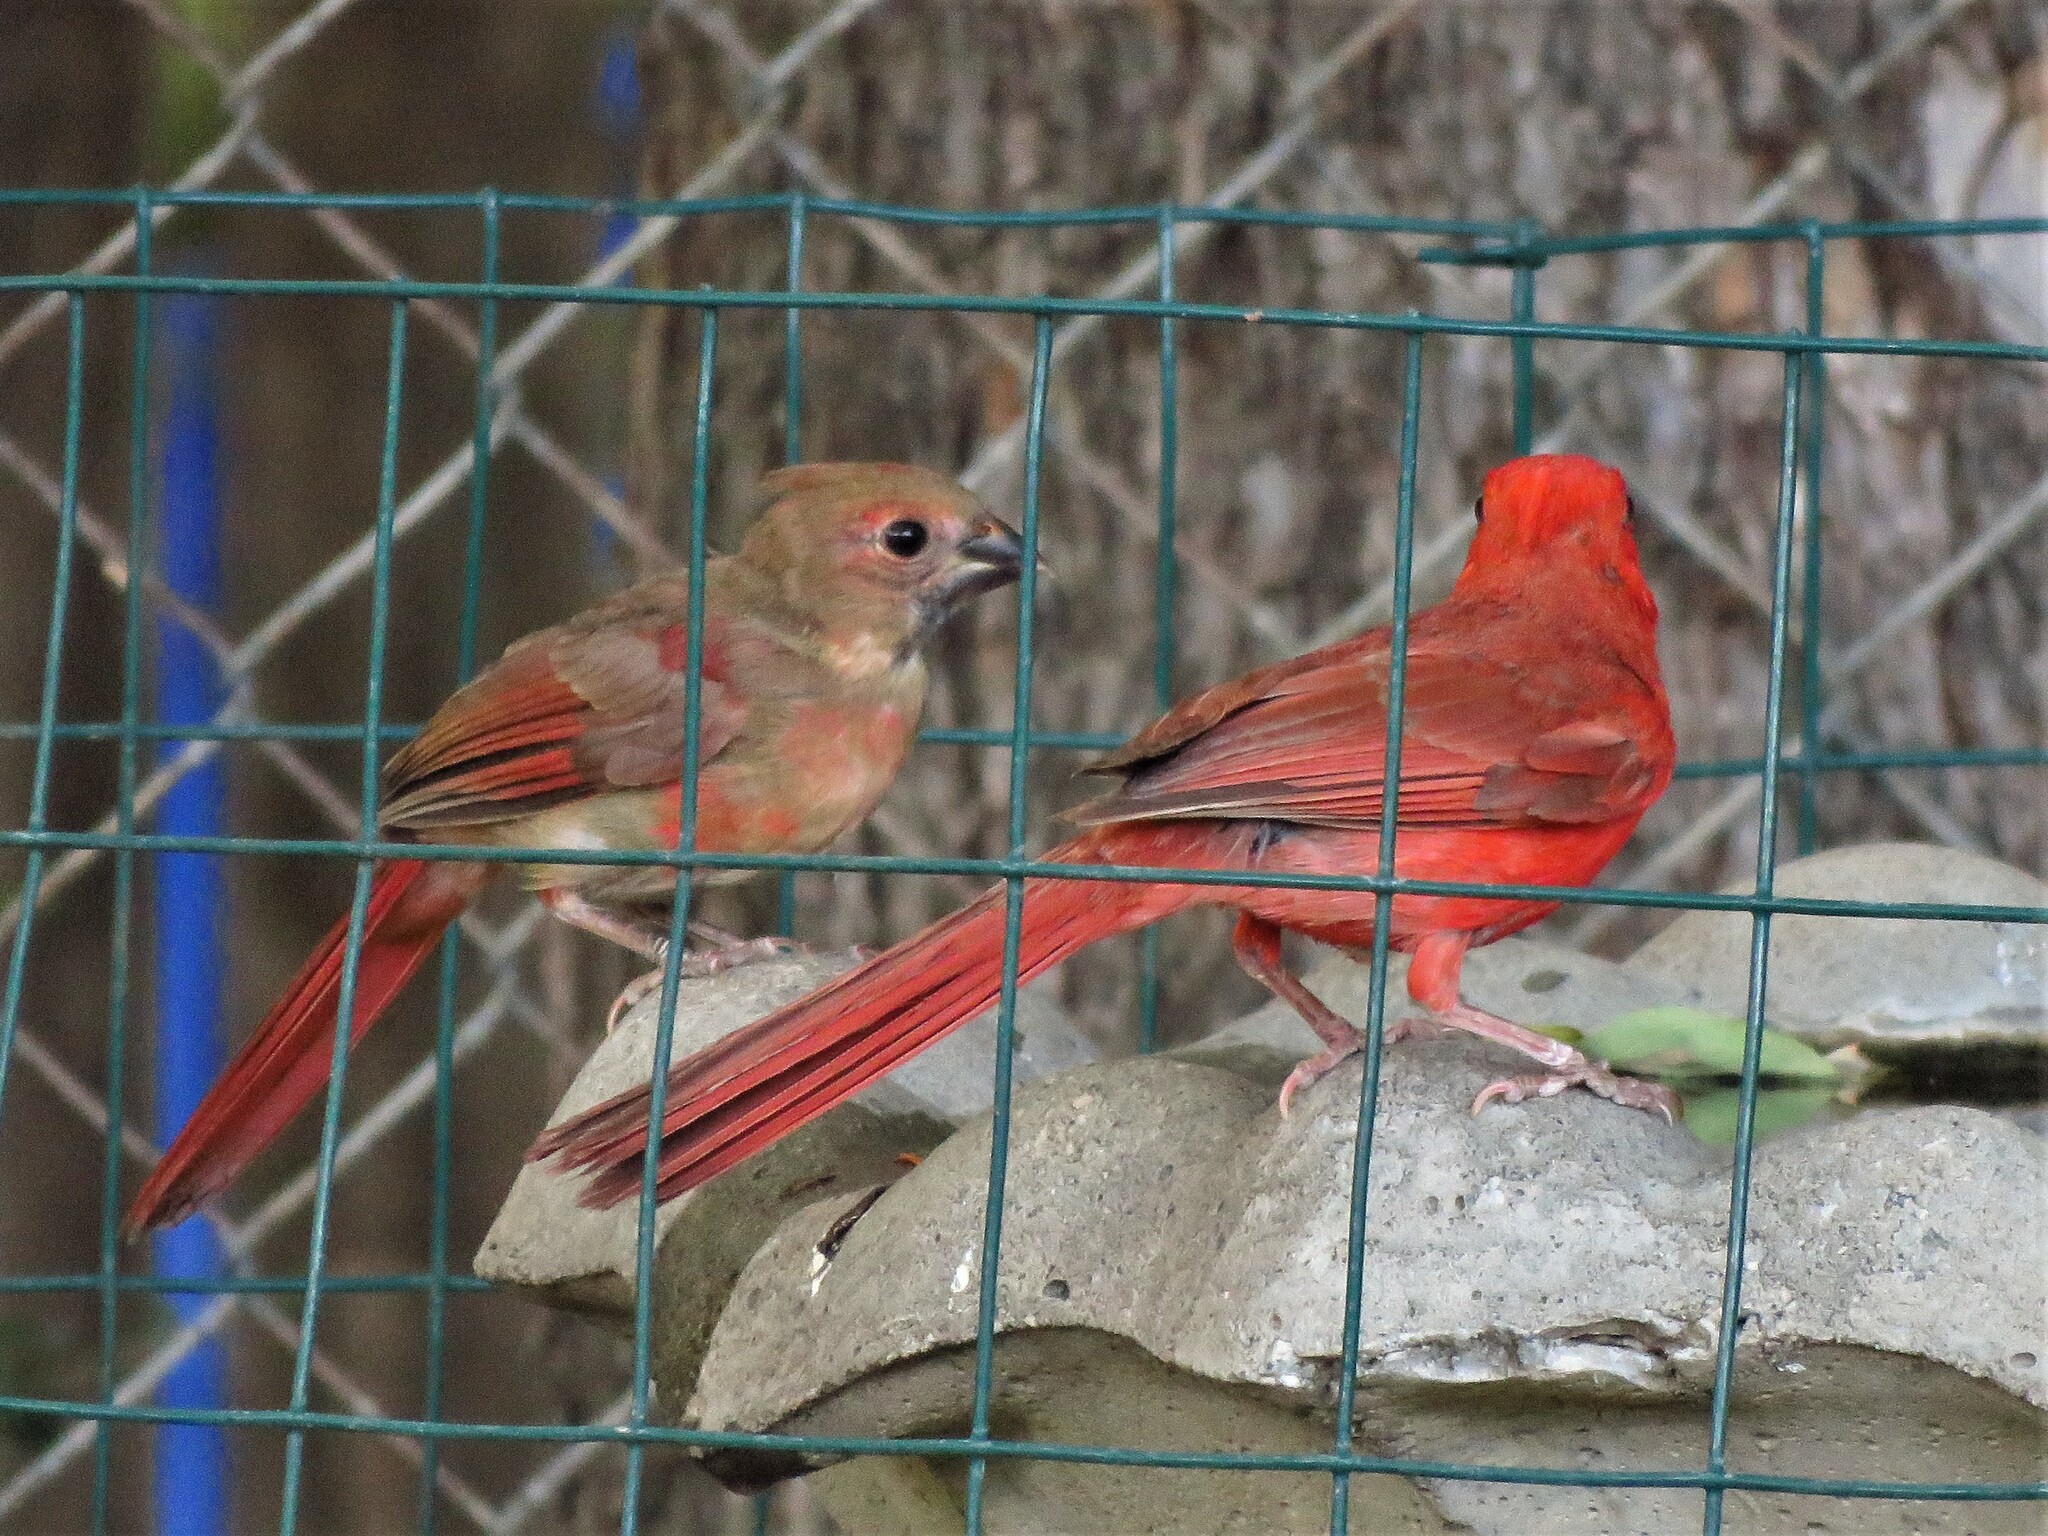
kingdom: Animalia
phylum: Chordata
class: Aves
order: Passeriformes
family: Cardinalidae
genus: Cardinalis
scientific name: Cardinalis cardinalis
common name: Northern cardinal
